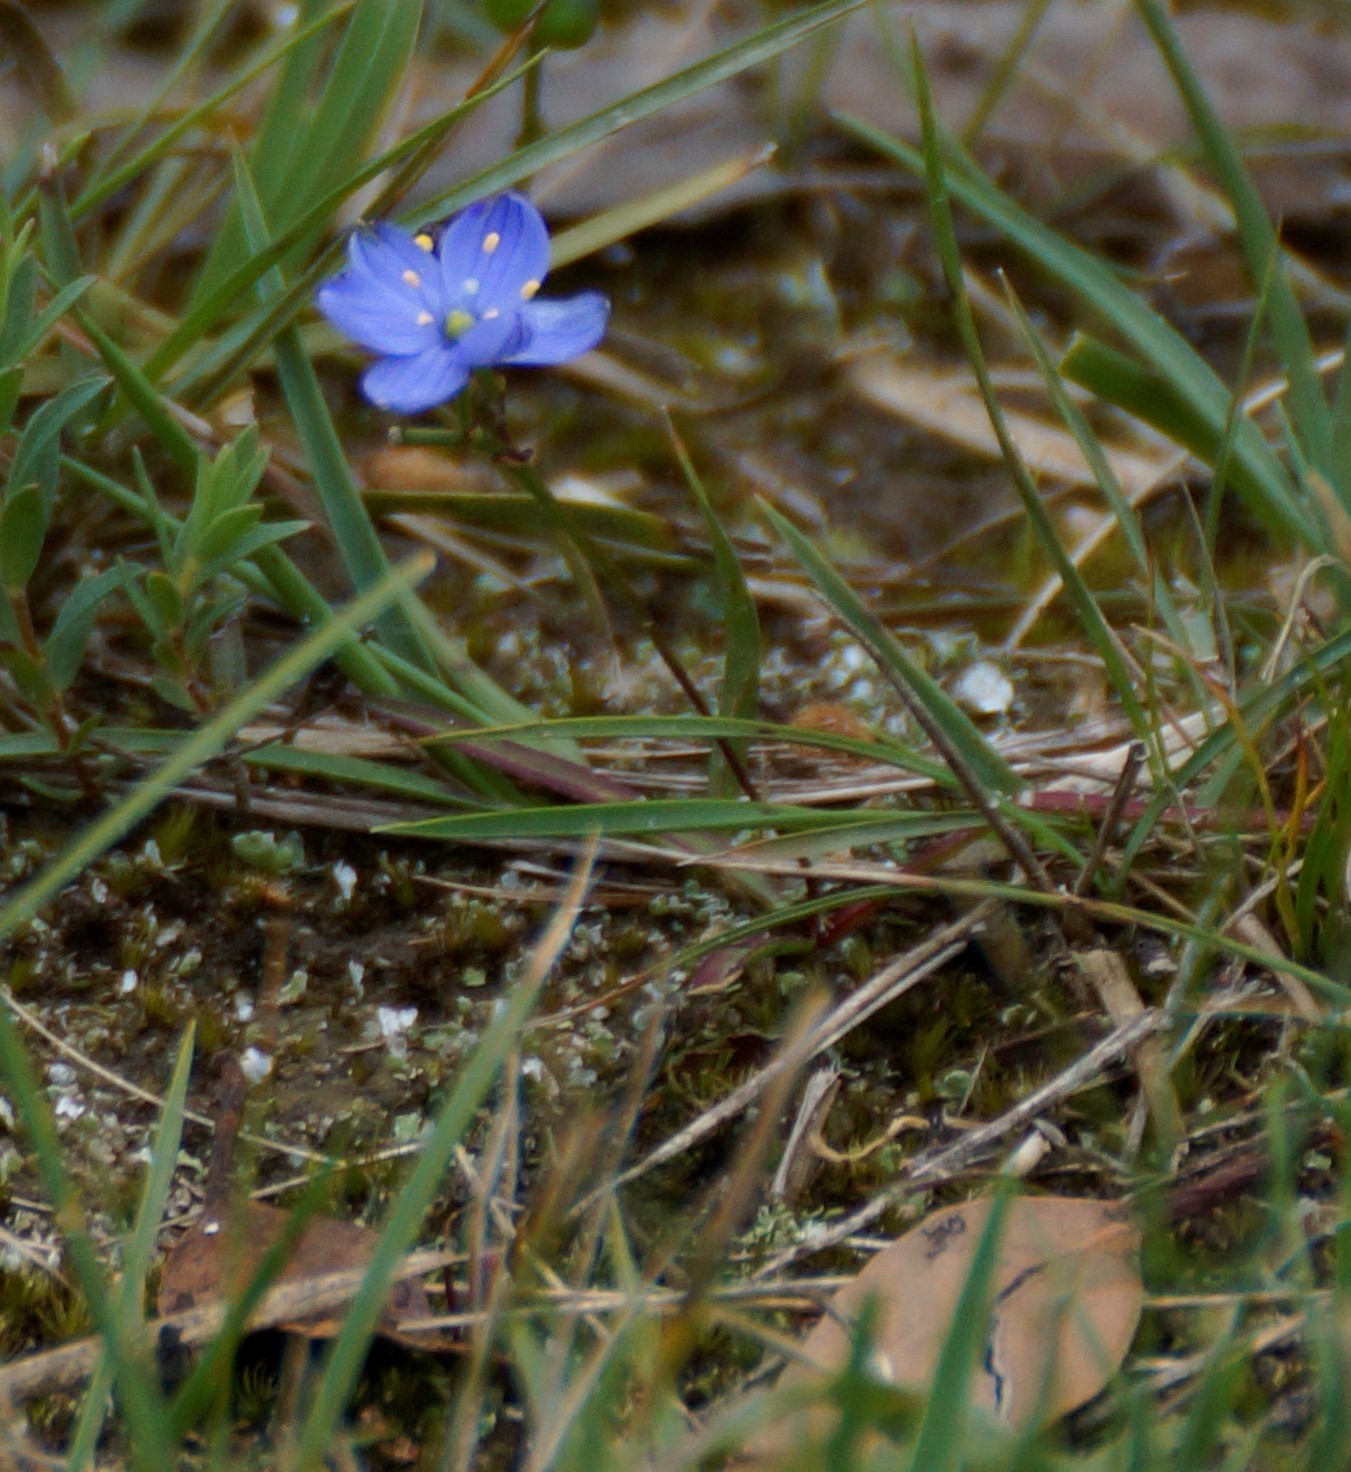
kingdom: Plantae
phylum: Tracheophyta
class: Liliopsida
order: Asparagales
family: Asphodelaceae
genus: Chamaescilla
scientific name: Chamaescilla corymbosa
